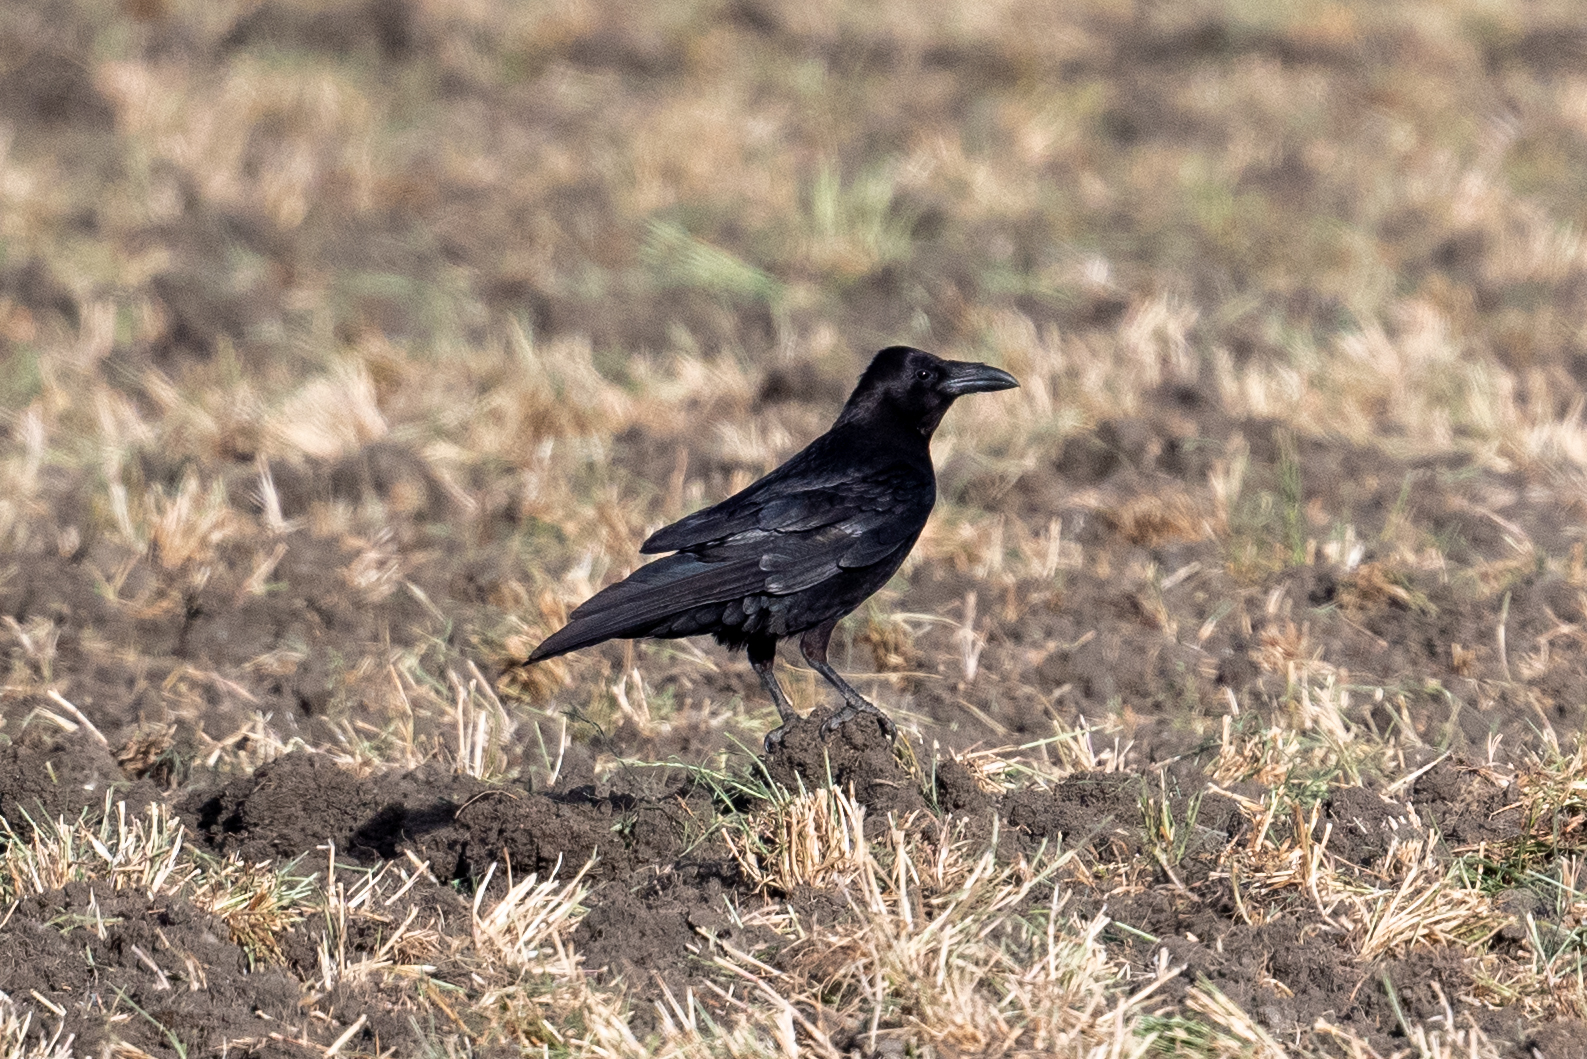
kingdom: Animalia
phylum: Chordata
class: Aves
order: Passeriformes
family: Corvidae
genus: Corvus
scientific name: Corvus corax
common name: Common raven
